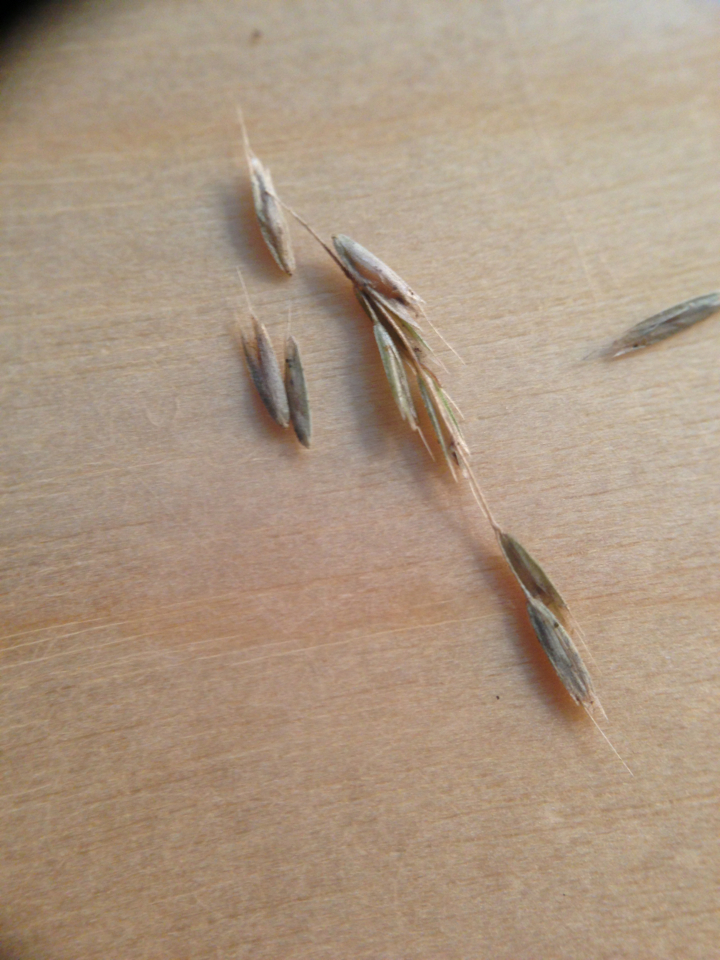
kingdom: Plantae
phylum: Tracheophyta
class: Liliopsida
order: Poales
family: Poaceae
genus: Cinna
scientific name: Cinna latifolia
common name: Drooping woodreed
